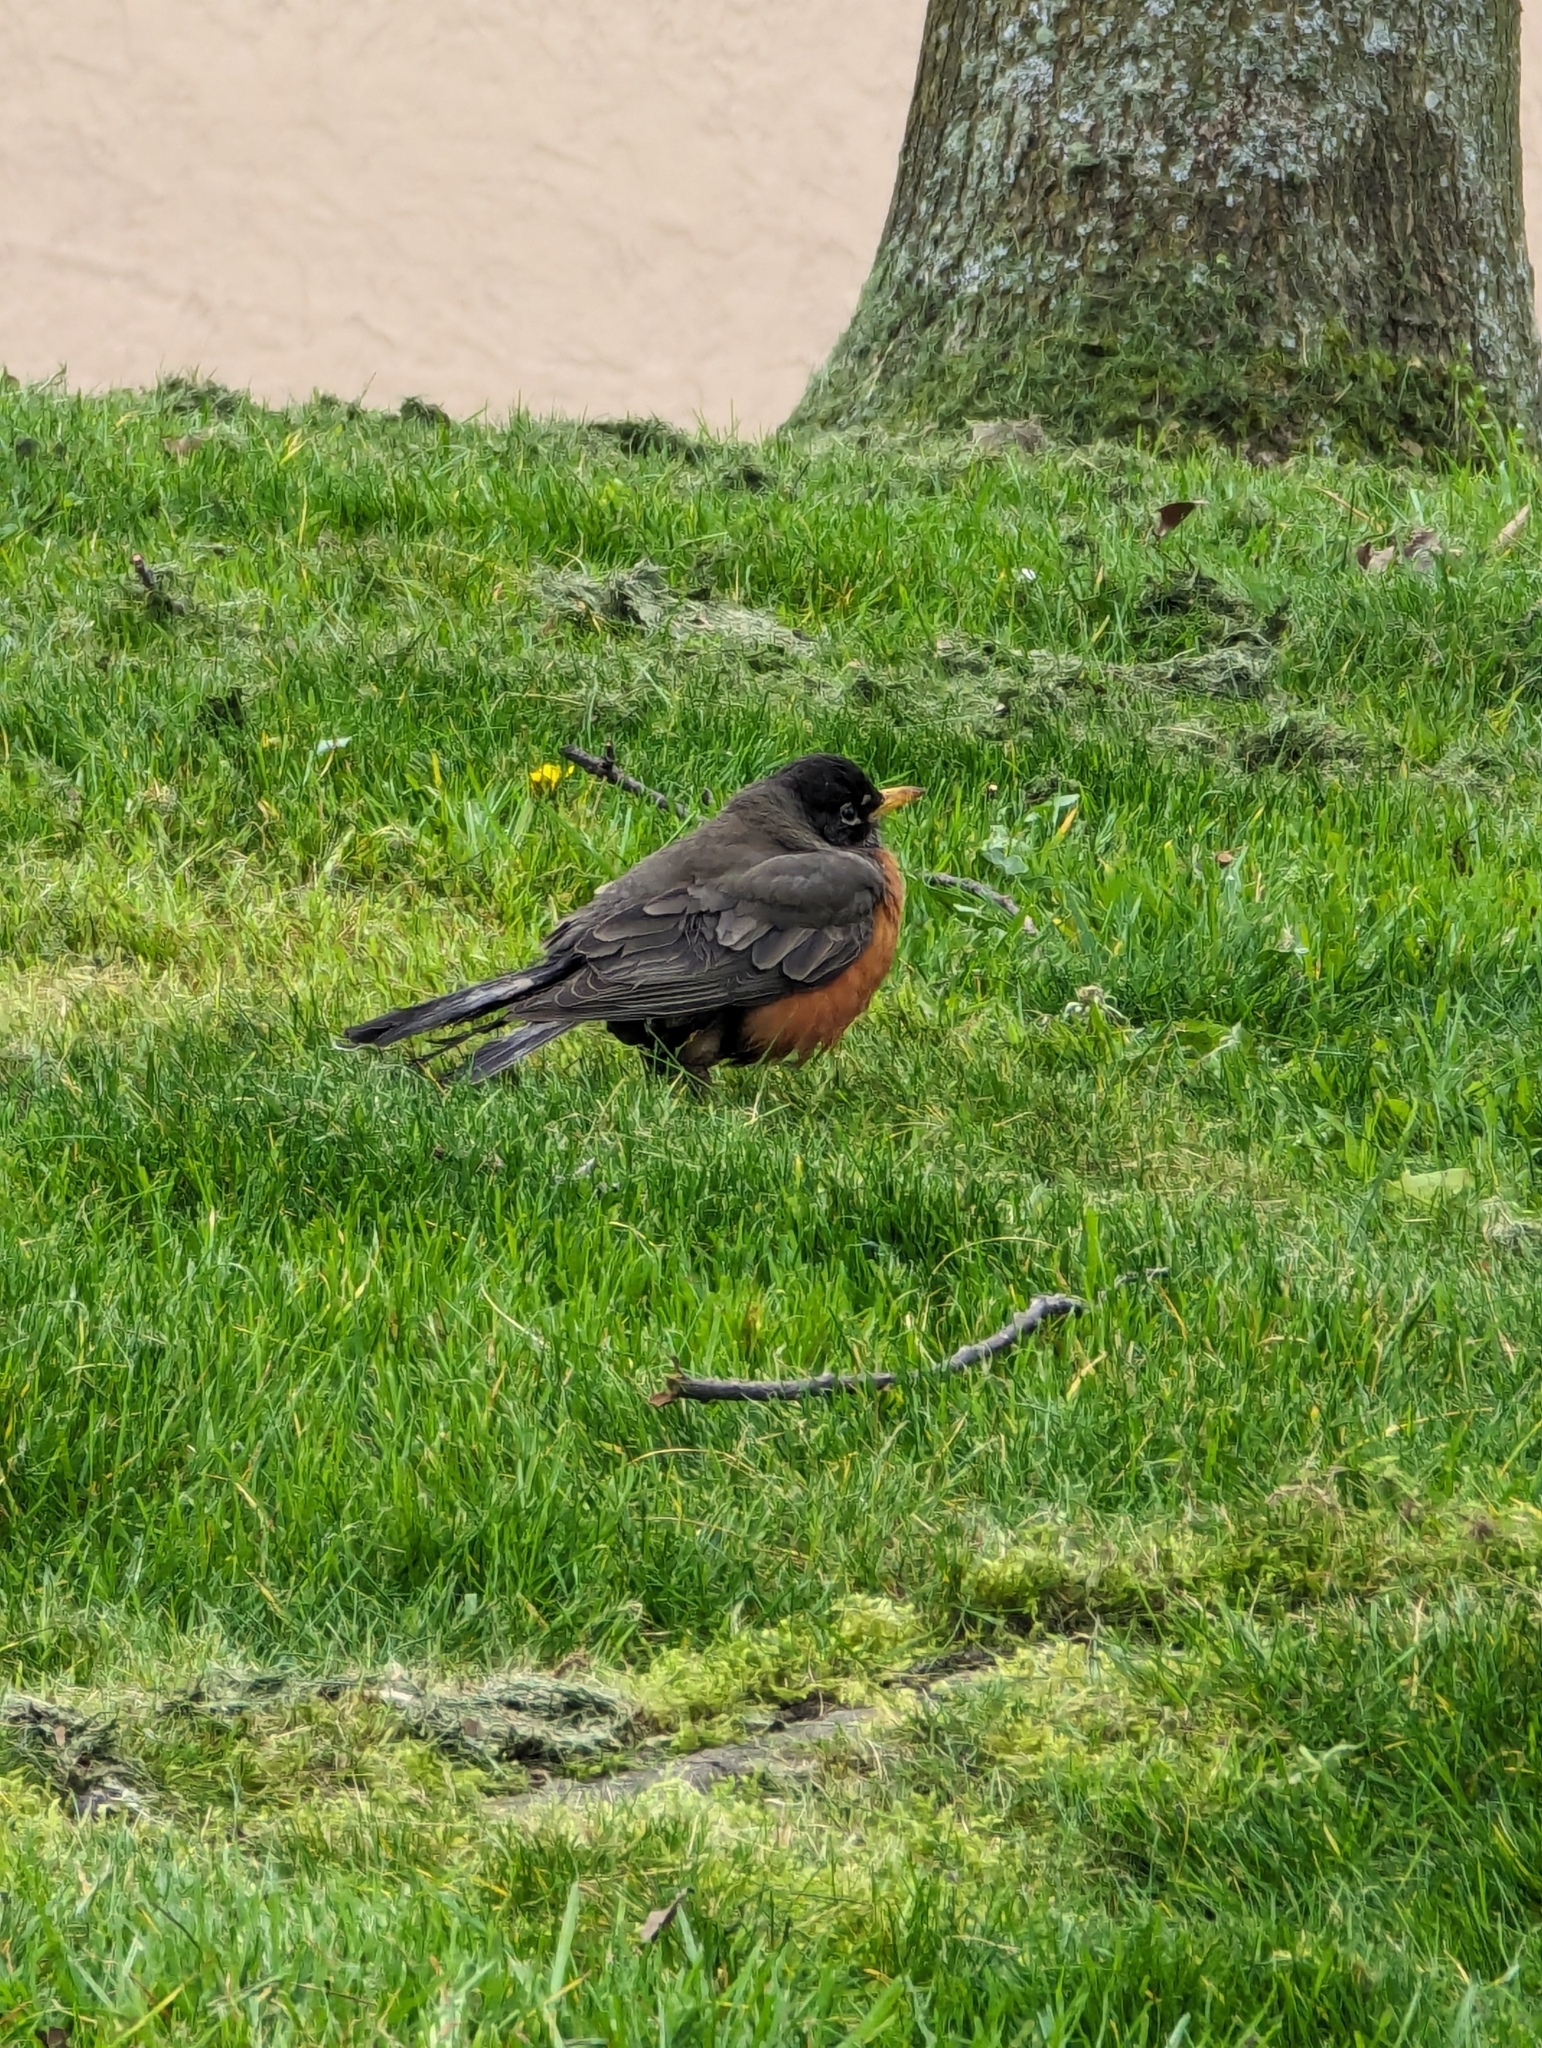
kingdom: Animalia
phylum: Chordata
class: Aves
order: Passeriformes
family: Turdidae
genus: Turdus
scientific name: Turdus migratorius
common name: American robin
